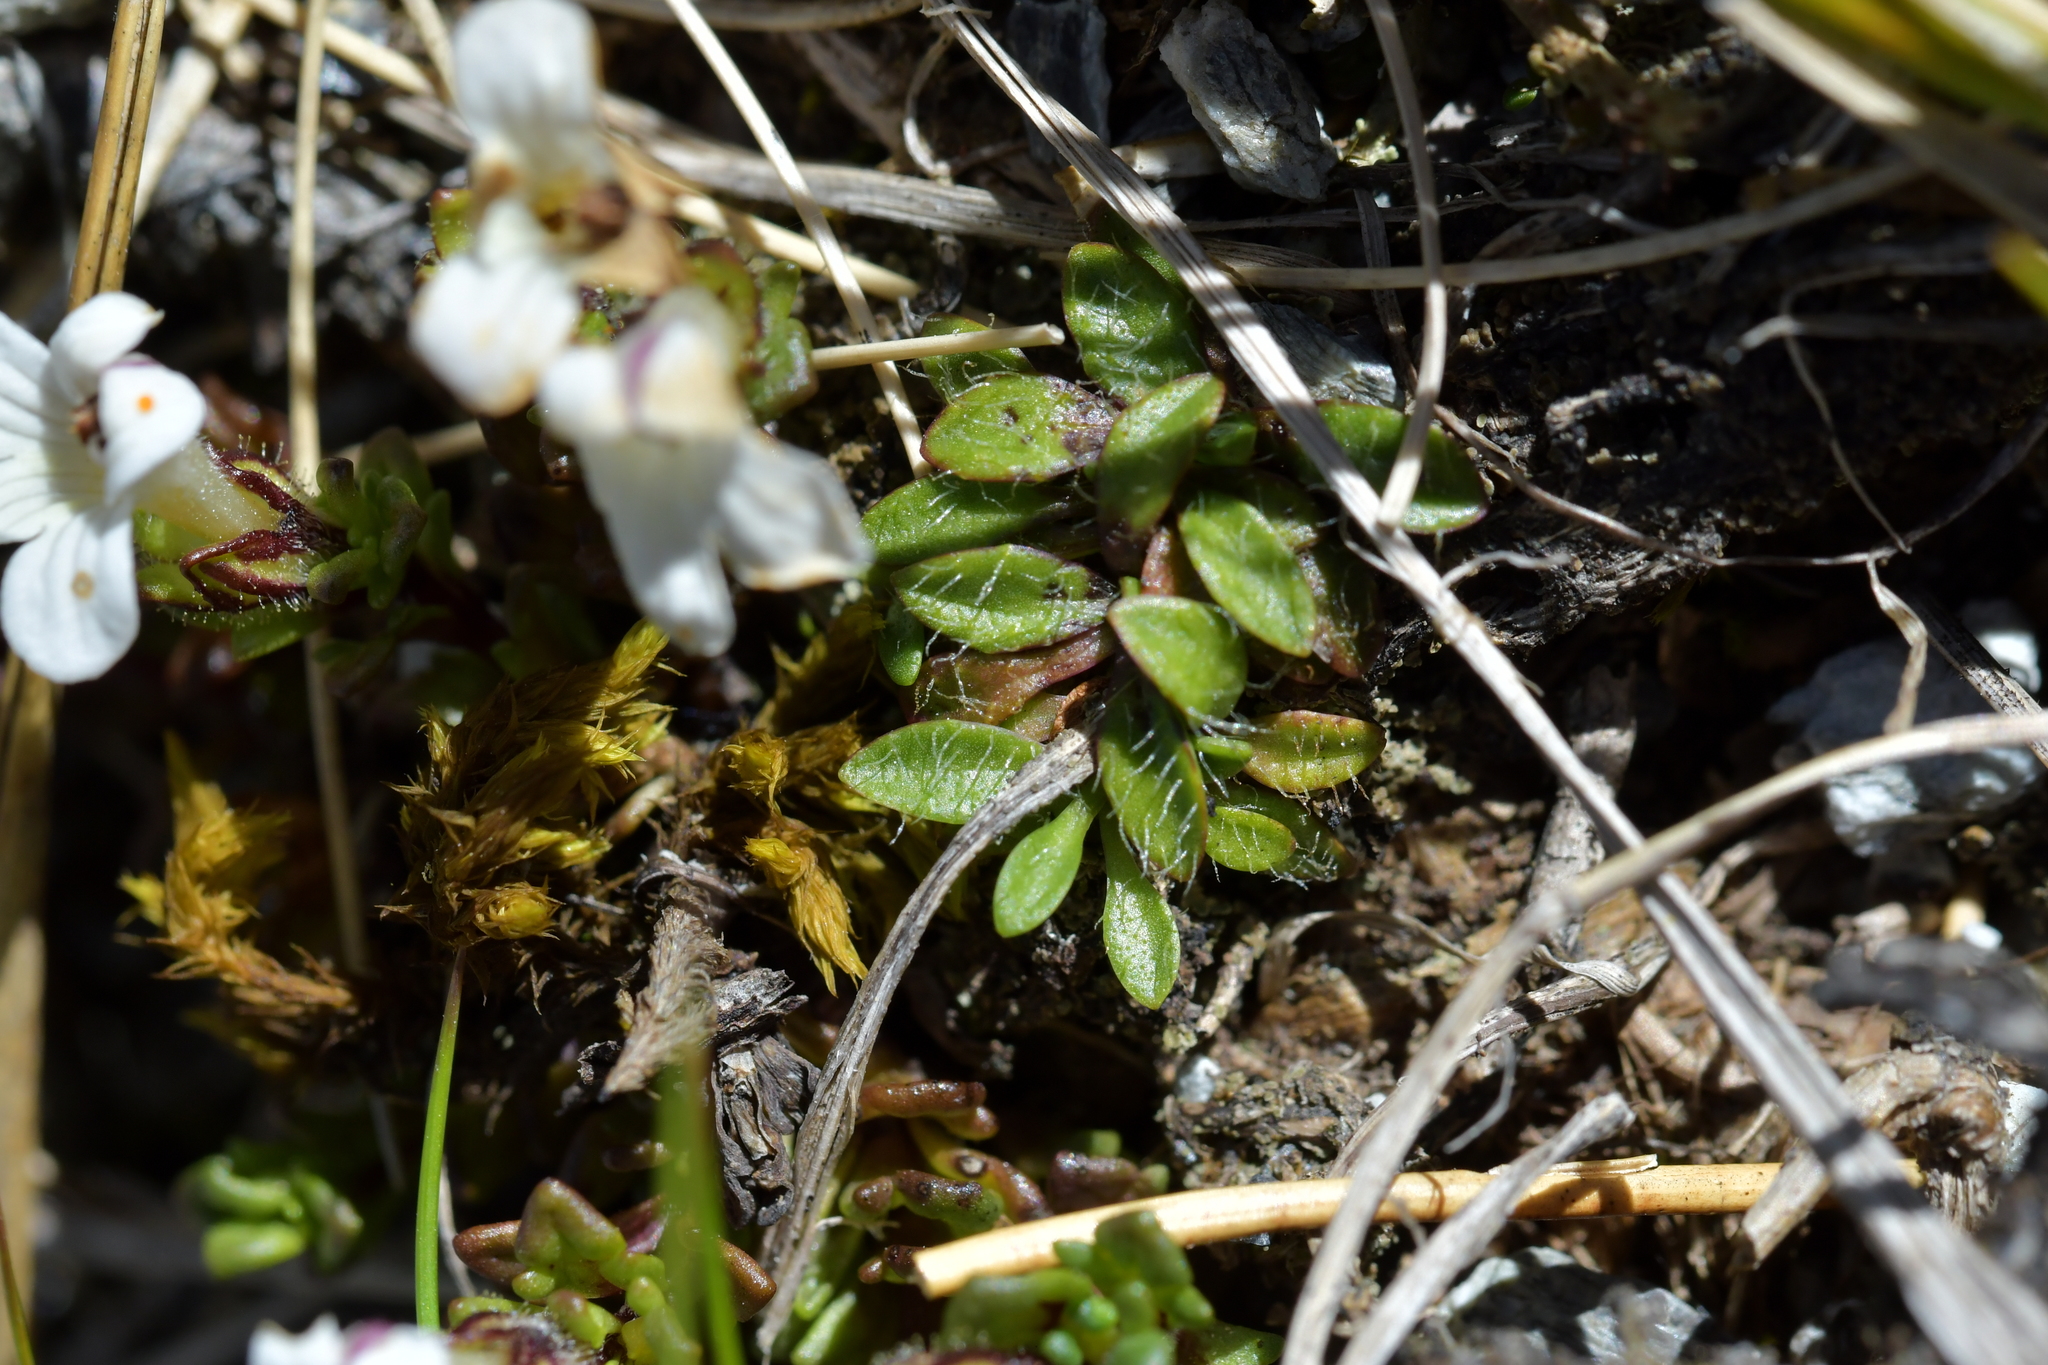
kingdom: Plantae
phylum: Tracheophyta
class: Magnoliopsida
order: Lamiales
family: Orobanchaceae
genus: Euphrasia
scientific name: Euphrasia petriei
